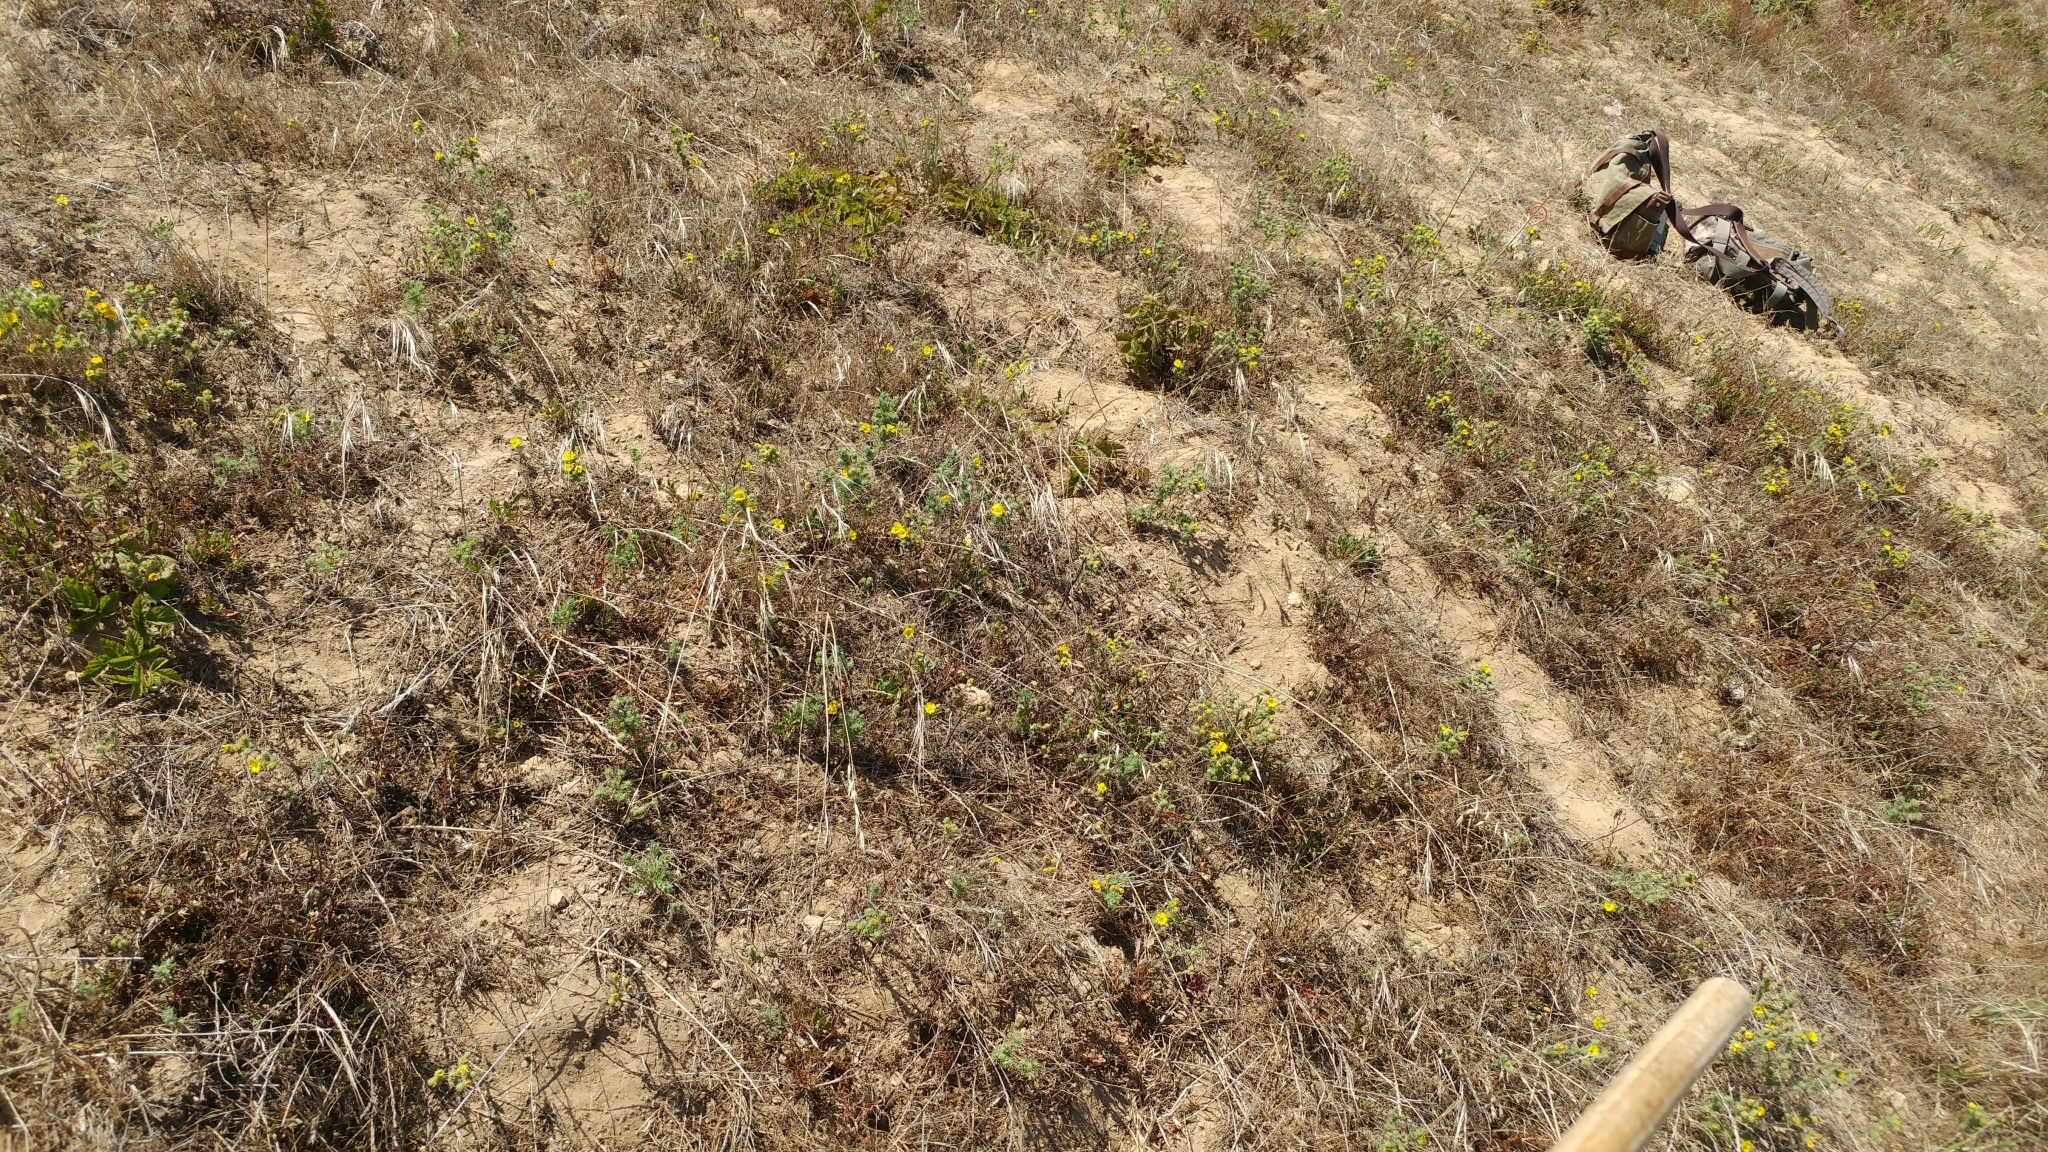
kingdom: Plantae
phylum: Tracheophyta
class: Magnoliopsida
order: Asterales
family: Asteraceae
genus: Deinandra
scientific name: Deinandra increscens
